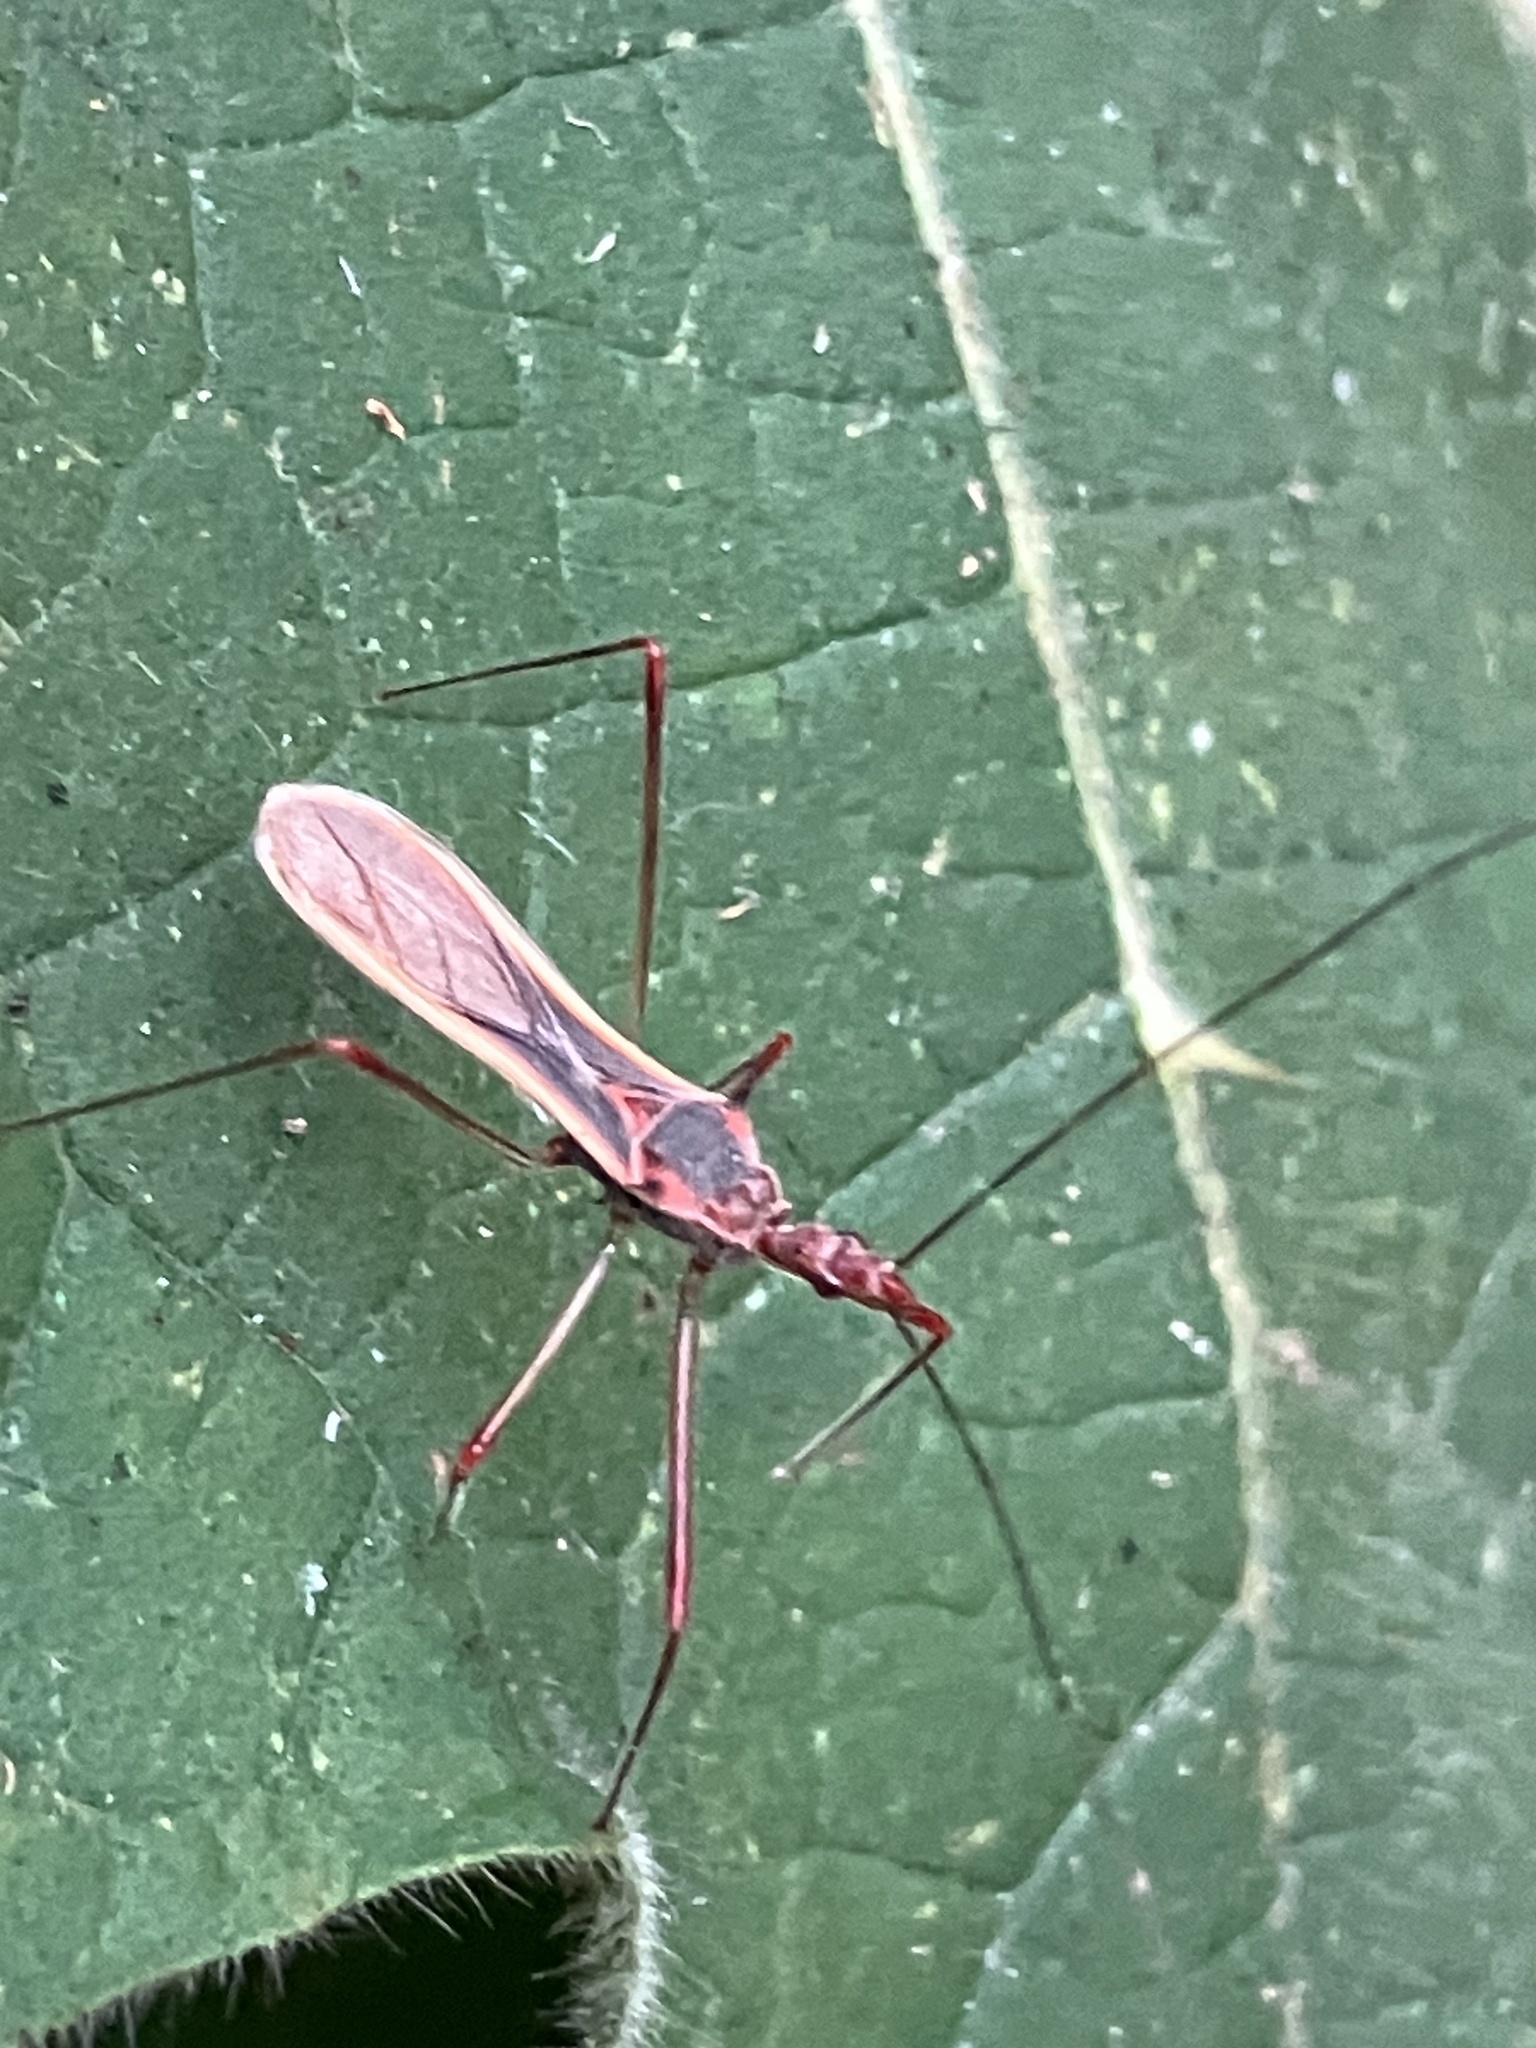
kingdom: Animalia
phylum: Arthropoda
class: Insecta
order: Hemiptera
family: Reduviidae
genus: Euagoras
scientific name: Euagoras plagiatus
